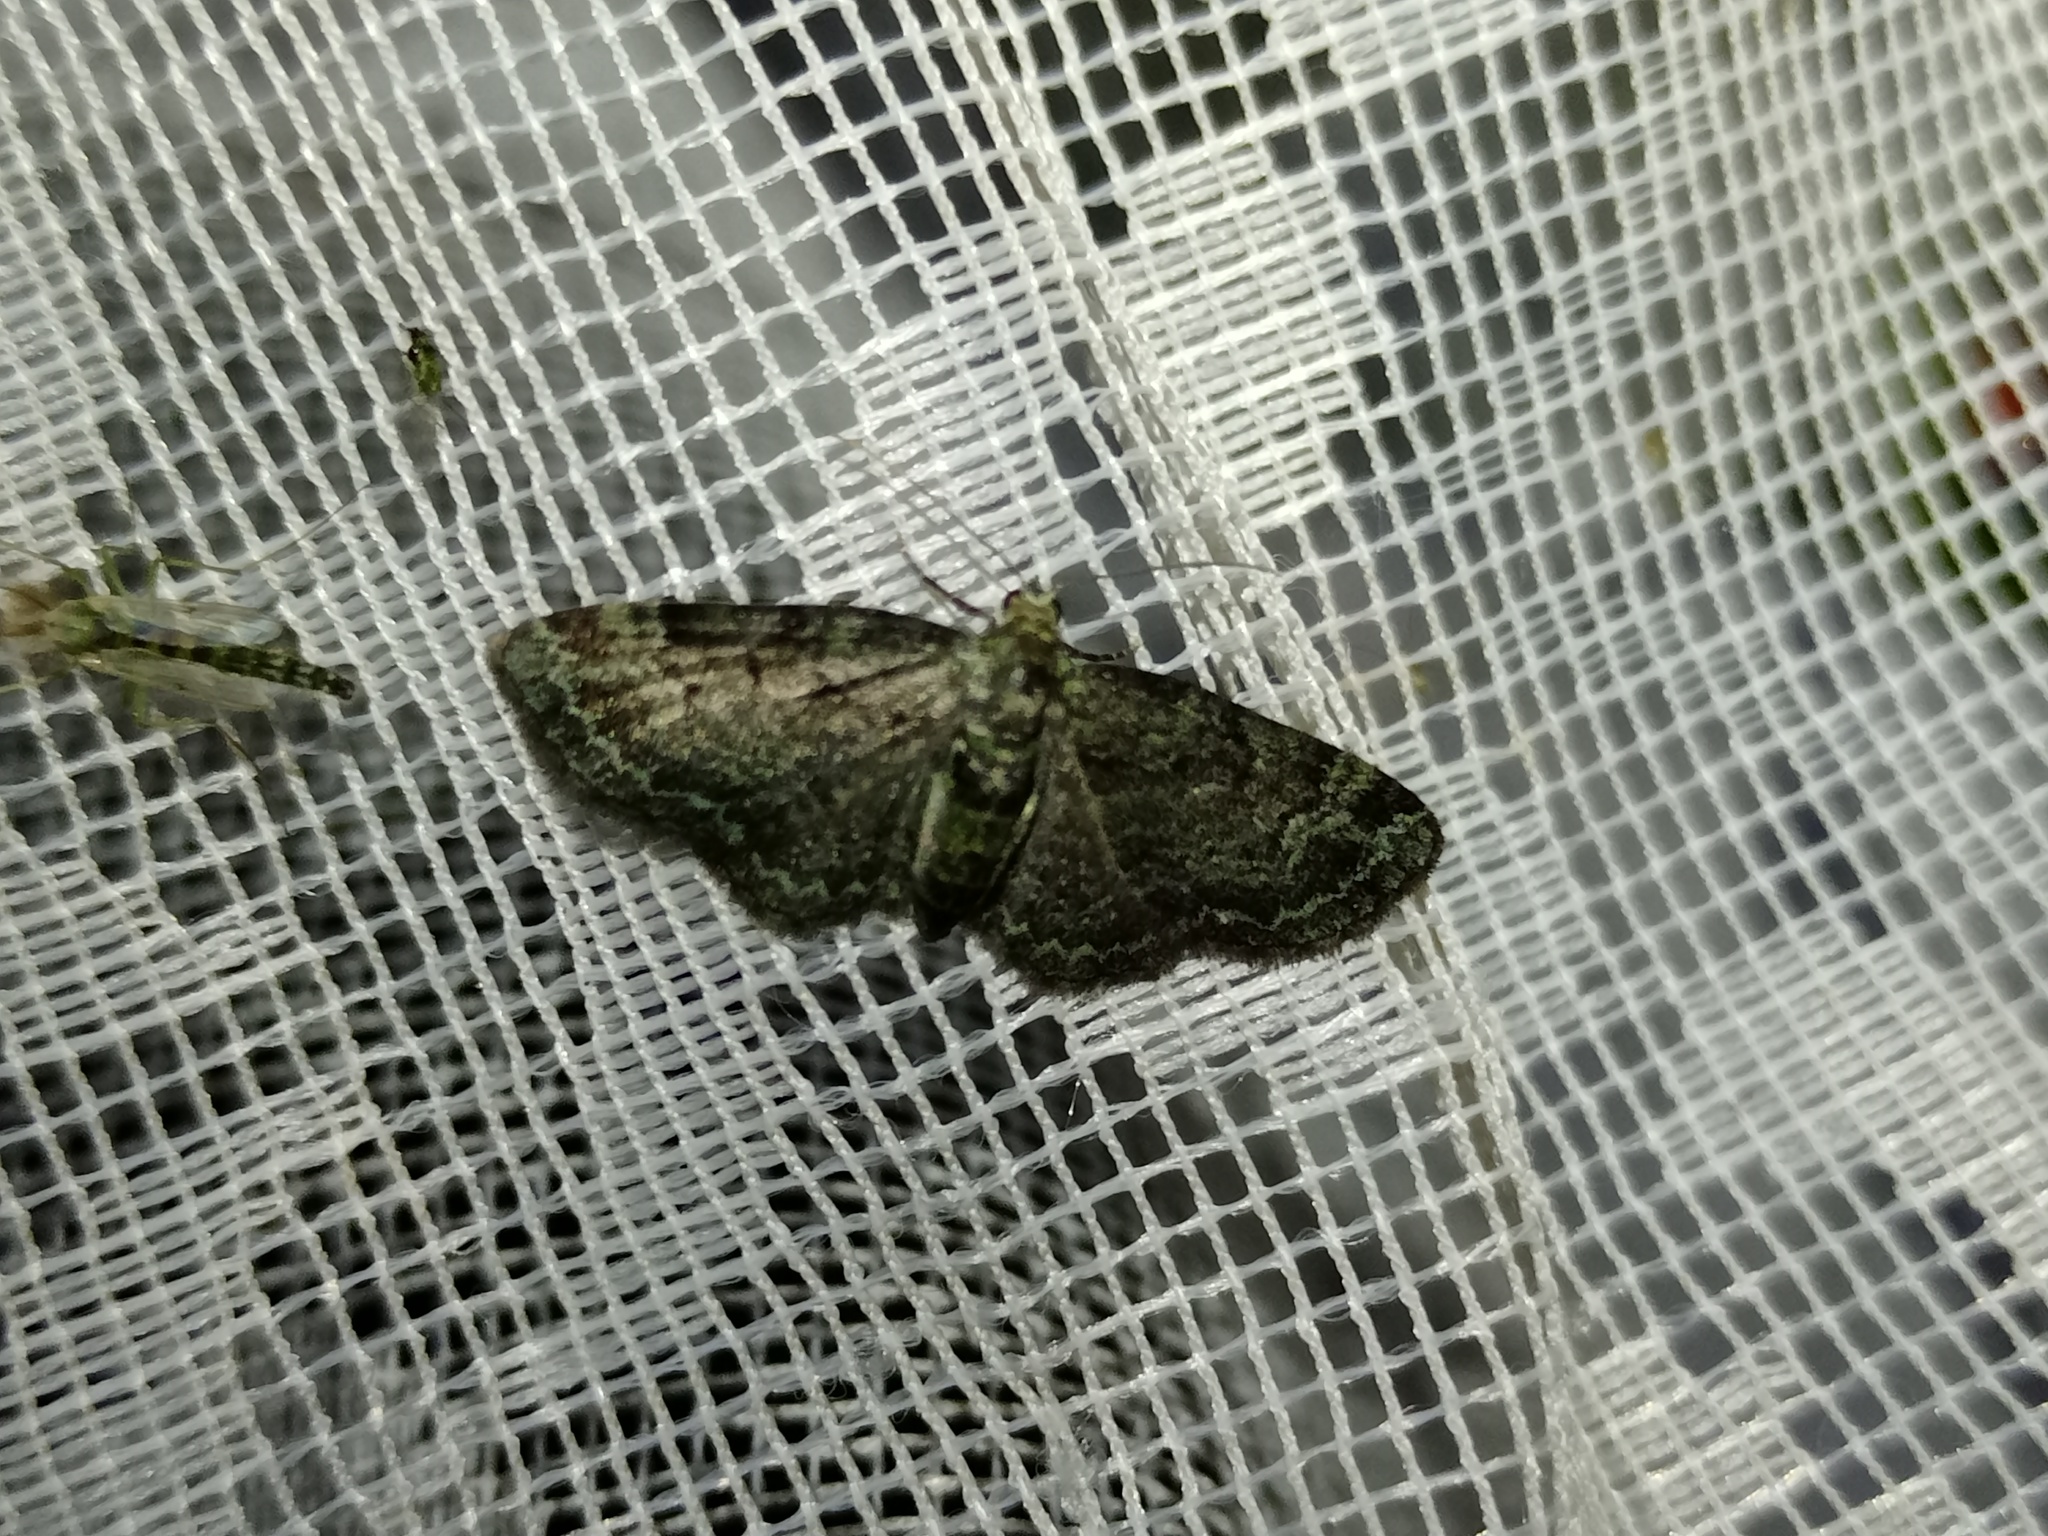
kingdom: Animalia
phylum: Arthropoda
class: Insecta
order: Lepidoptera
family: Geometridae
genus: Pasiphila
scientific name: Pasiphila rectangulata
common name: Green pug
